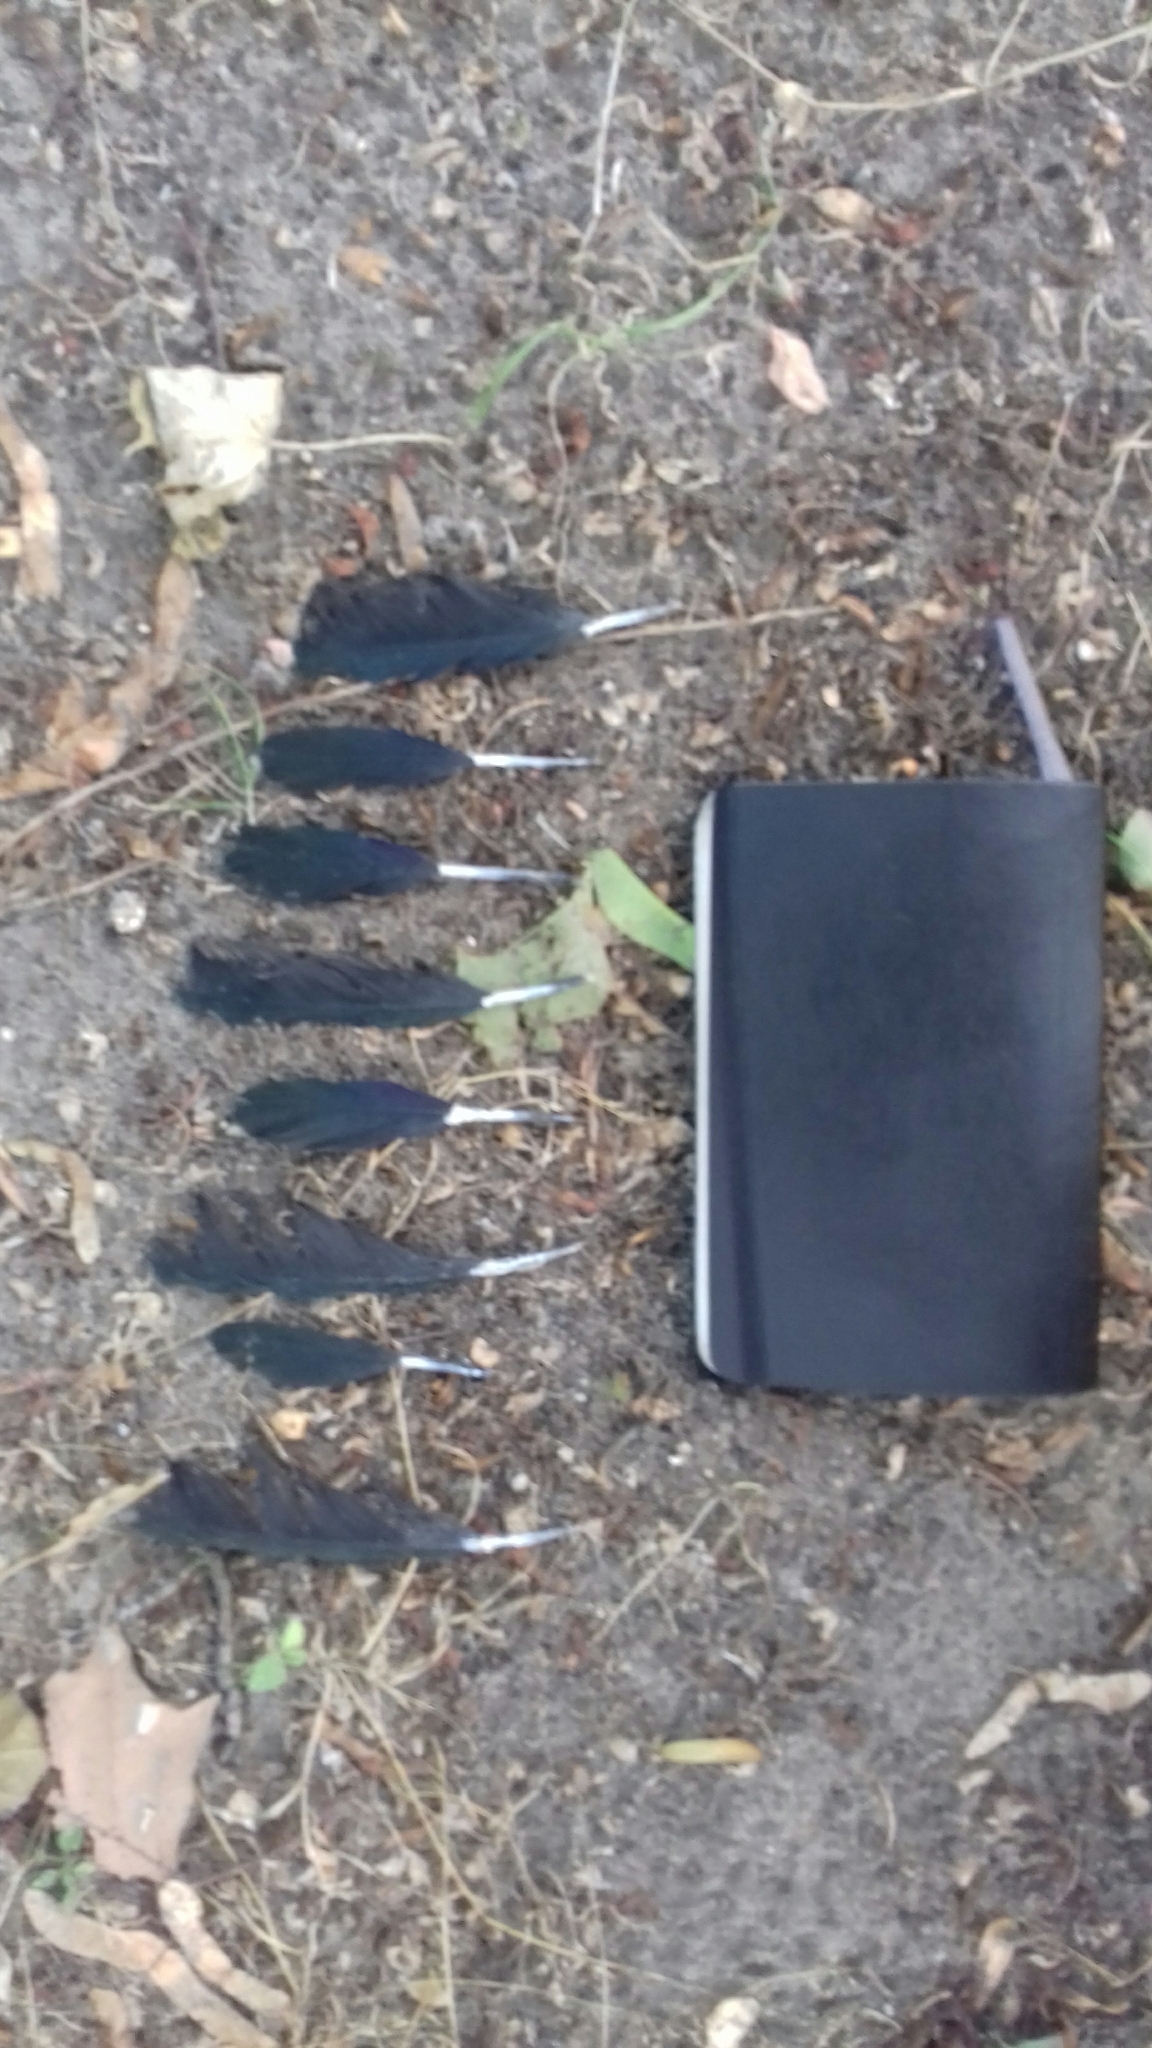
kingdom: Animalia
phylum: Chordata
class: Aves
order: Passeriformes
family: Corvidae
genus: Pica
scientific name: Pica pica
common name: Eurasian magpie
